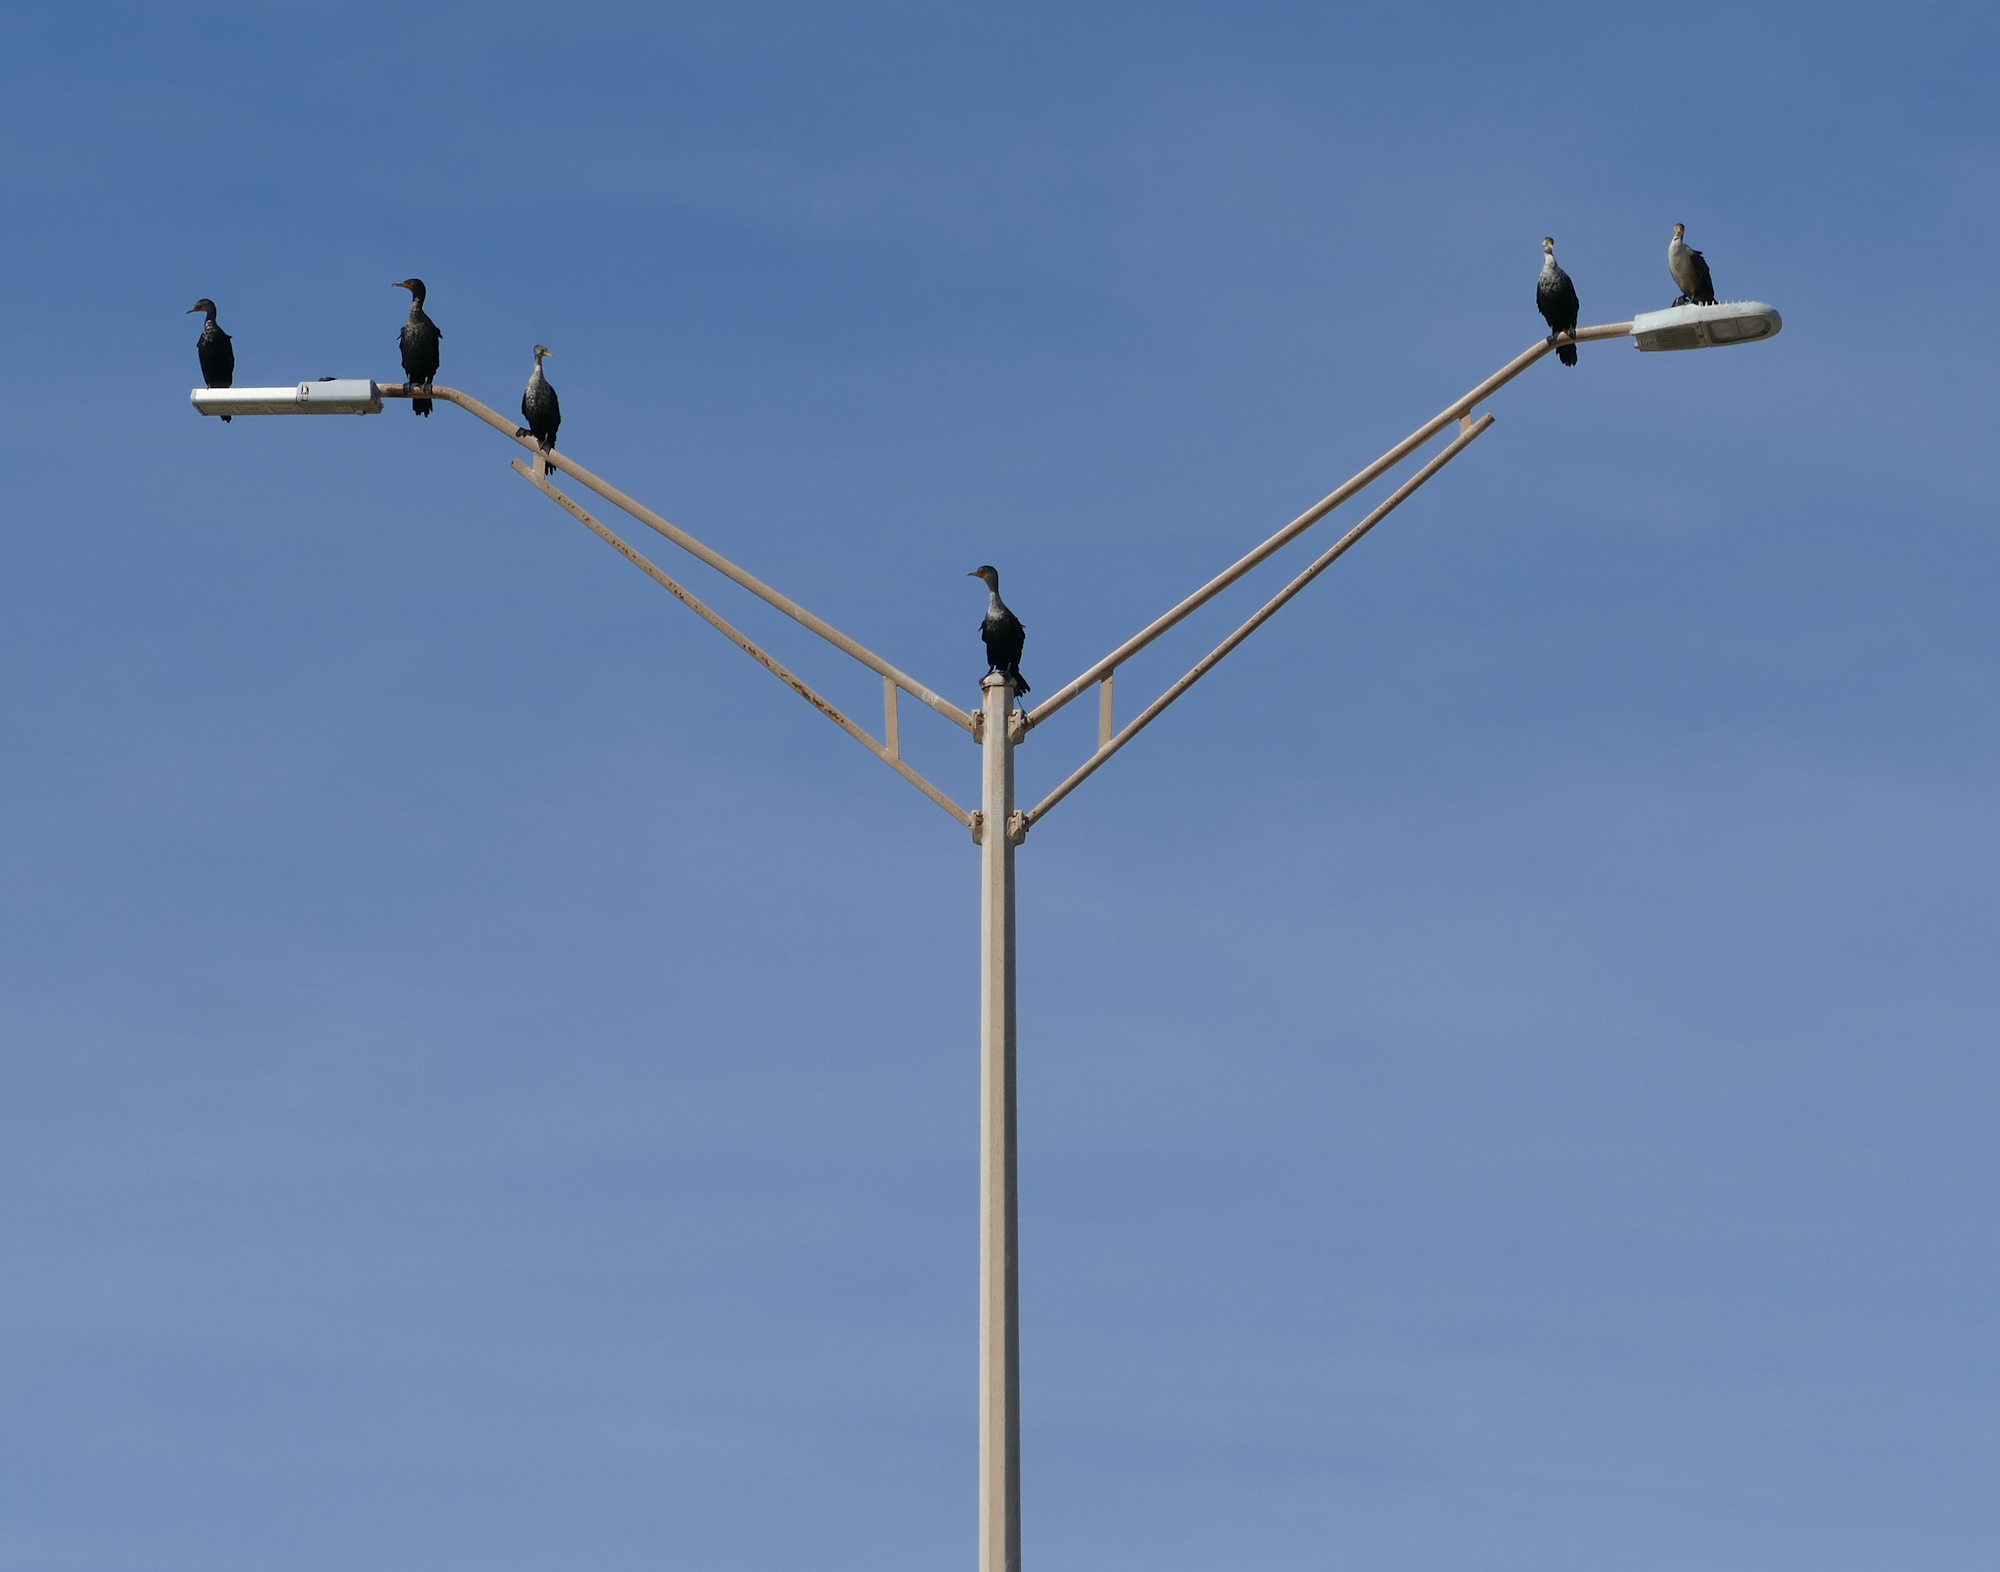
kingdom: Animalia
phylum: Chordata
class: Aves
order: Suliformes
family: Phalacrocoracidae
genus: Phalacrocorax
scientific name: Phalacrocorax auritus
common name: Double-crested cormorant
